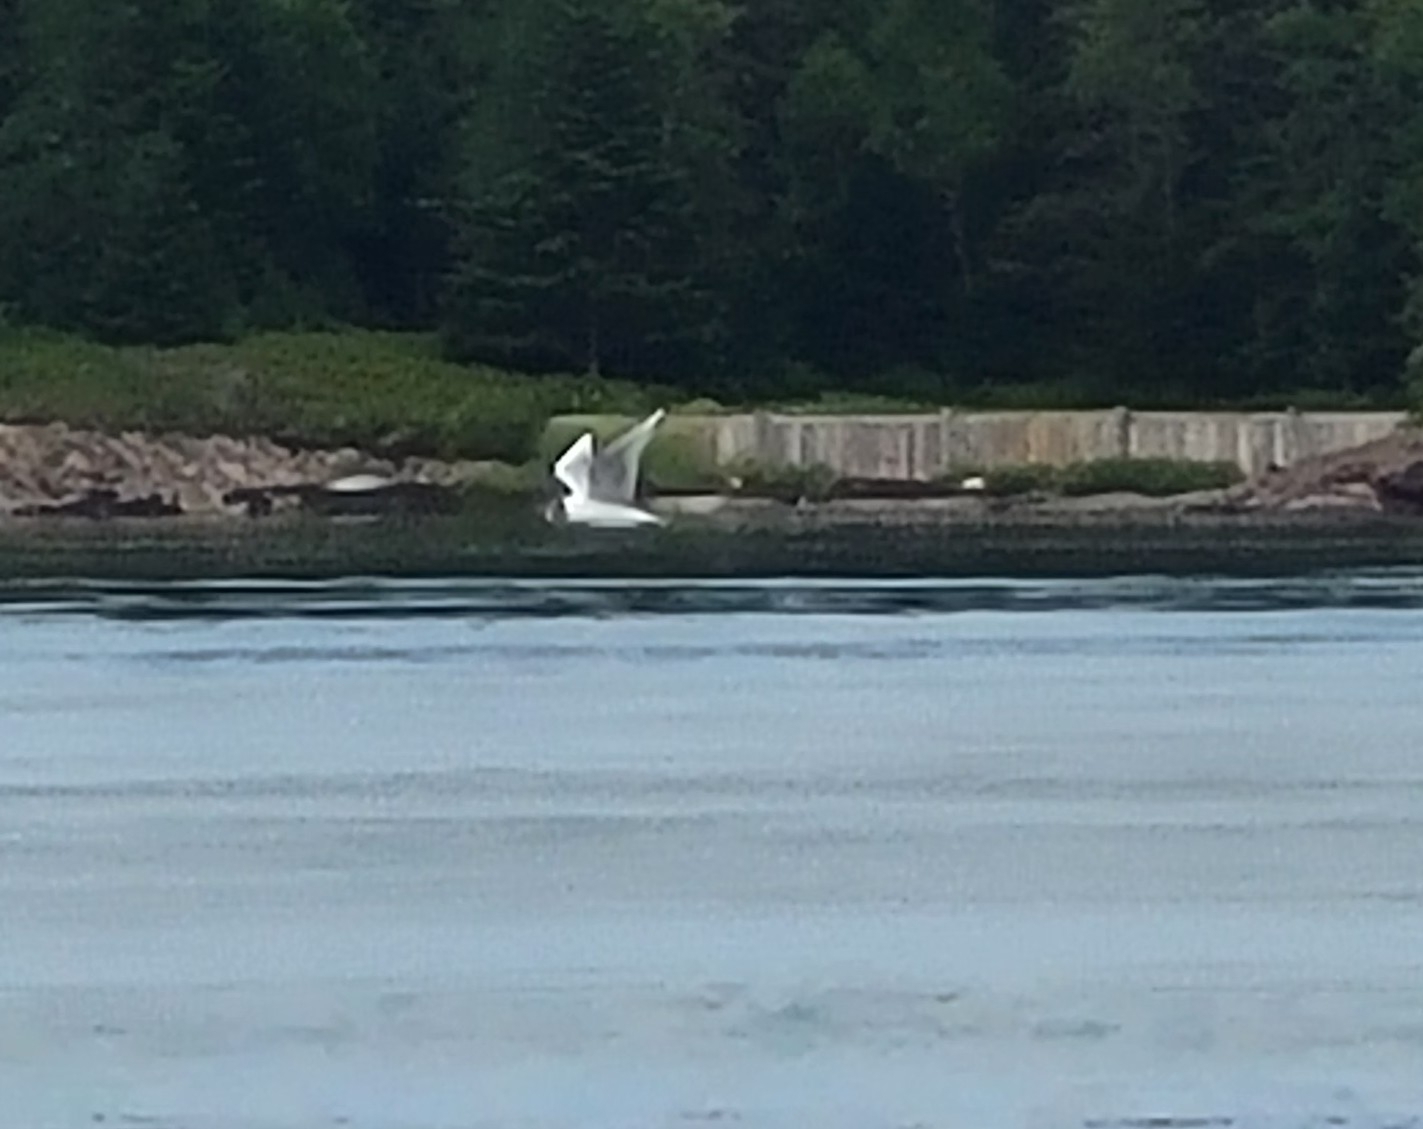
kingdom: Animalia
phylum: Chordata
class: Aves
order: Charadriiformes
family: Laridae
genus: Chroicocephalus
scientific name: Chroicocephalus philadelphia
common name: Bonaparte's gull
